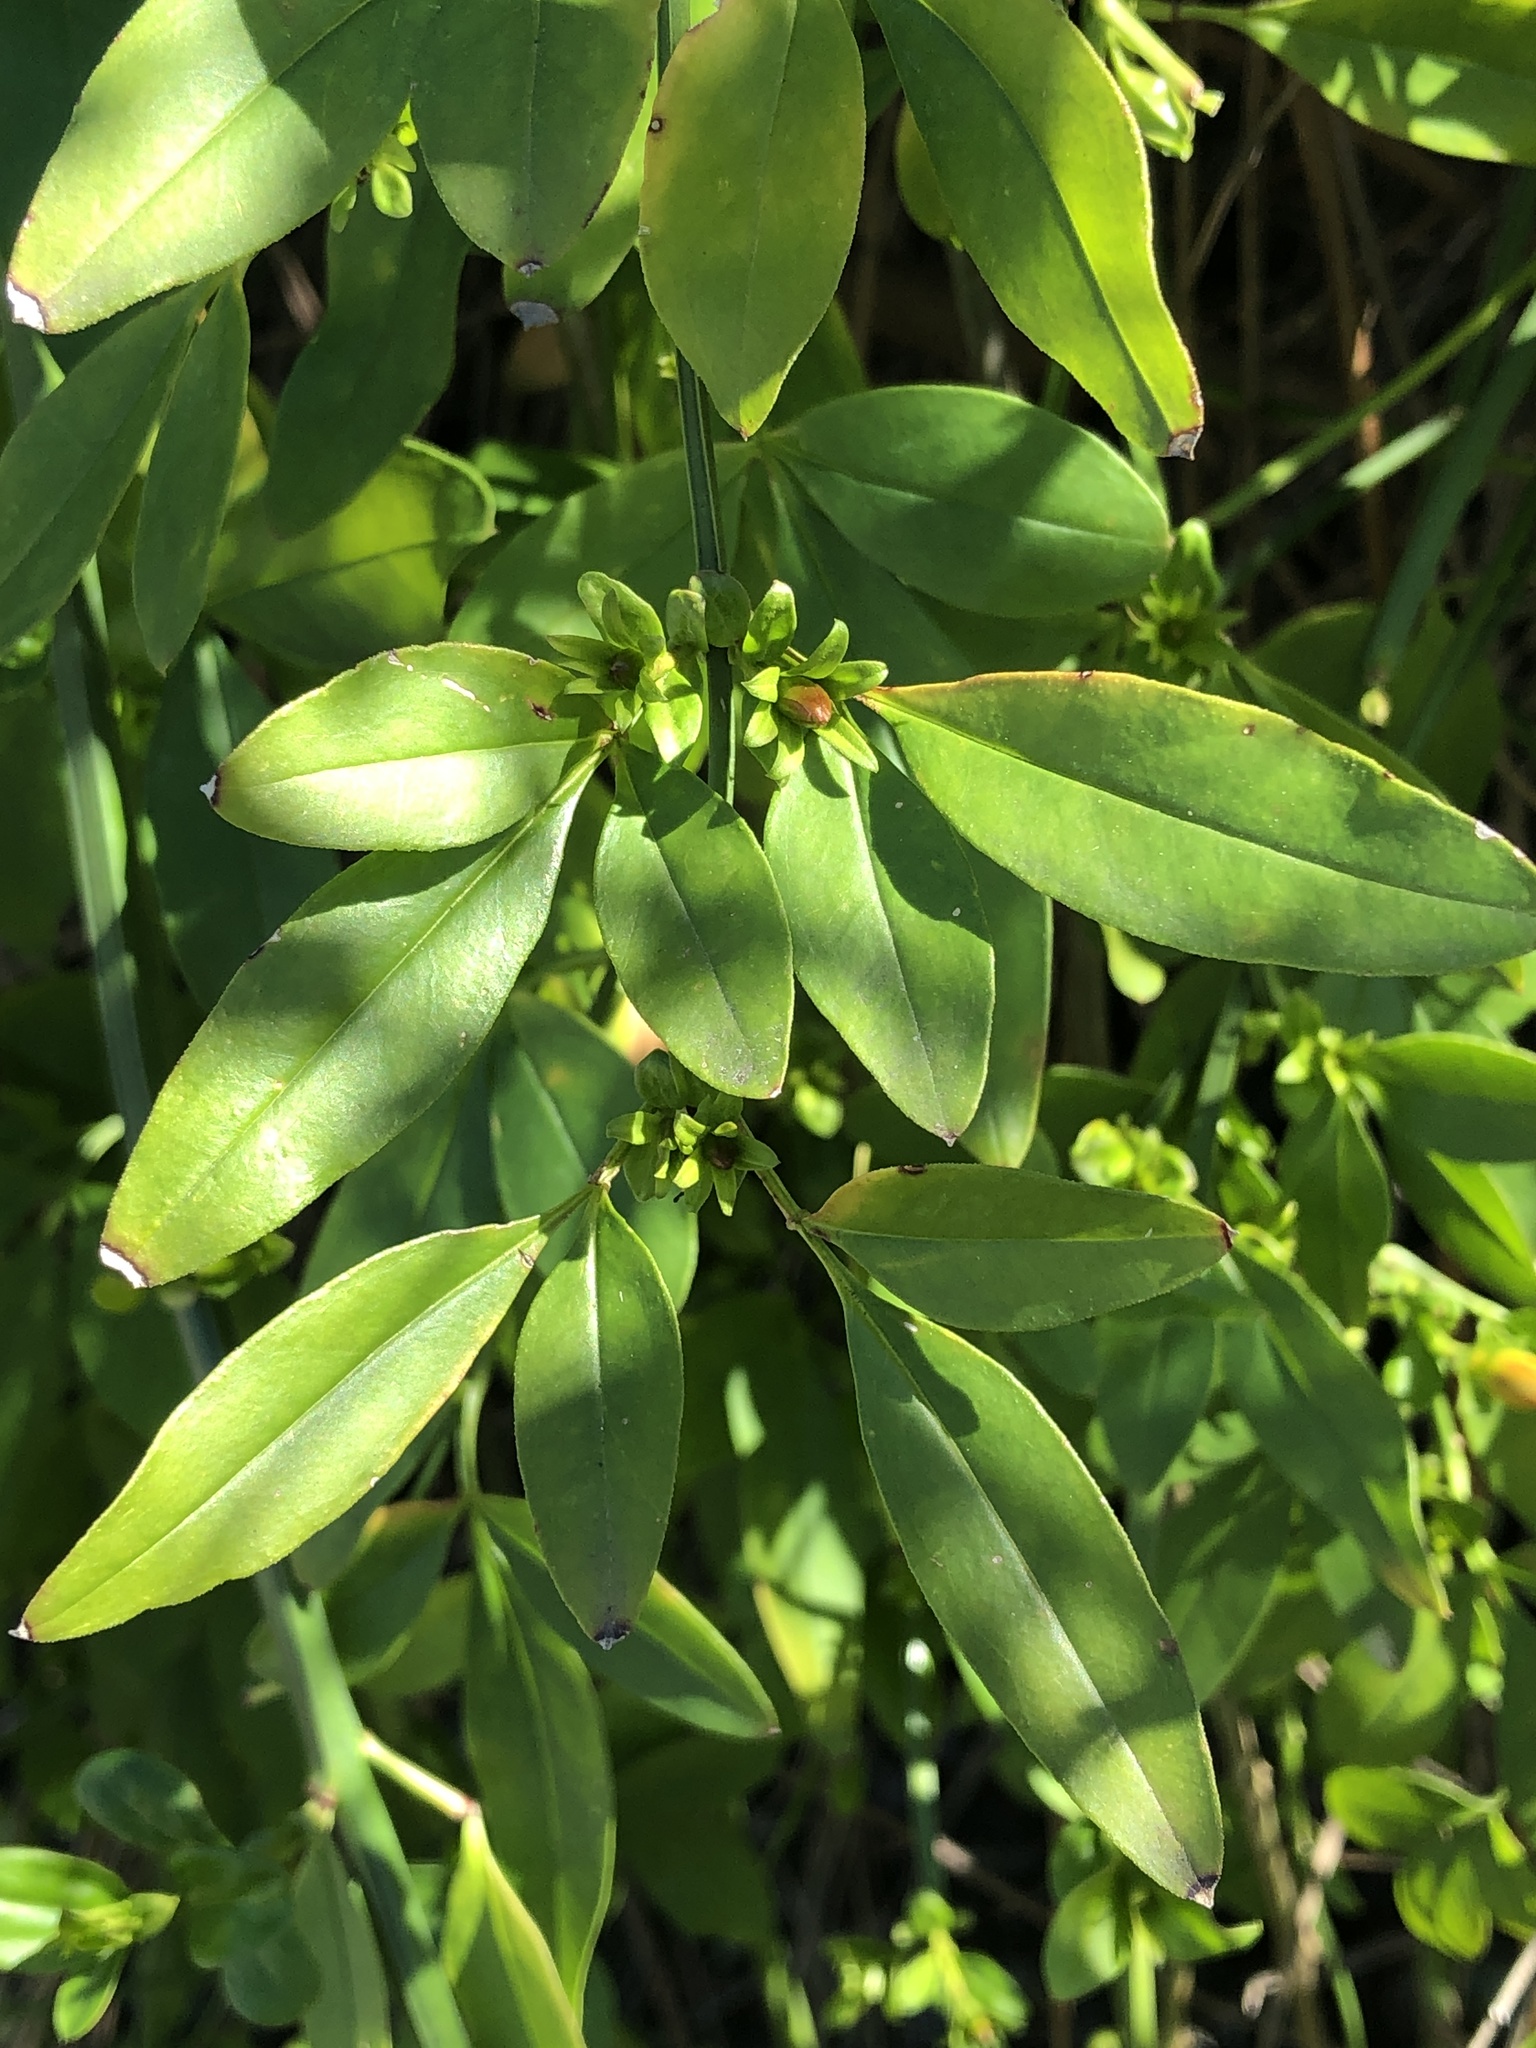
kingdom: Plantae
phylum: Tracheophyta
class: Magnoliopsida
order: Lamiales
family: Oleaceae
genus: Jasminum
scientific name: Jasminum mesnyi
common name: Japanese jasmine
